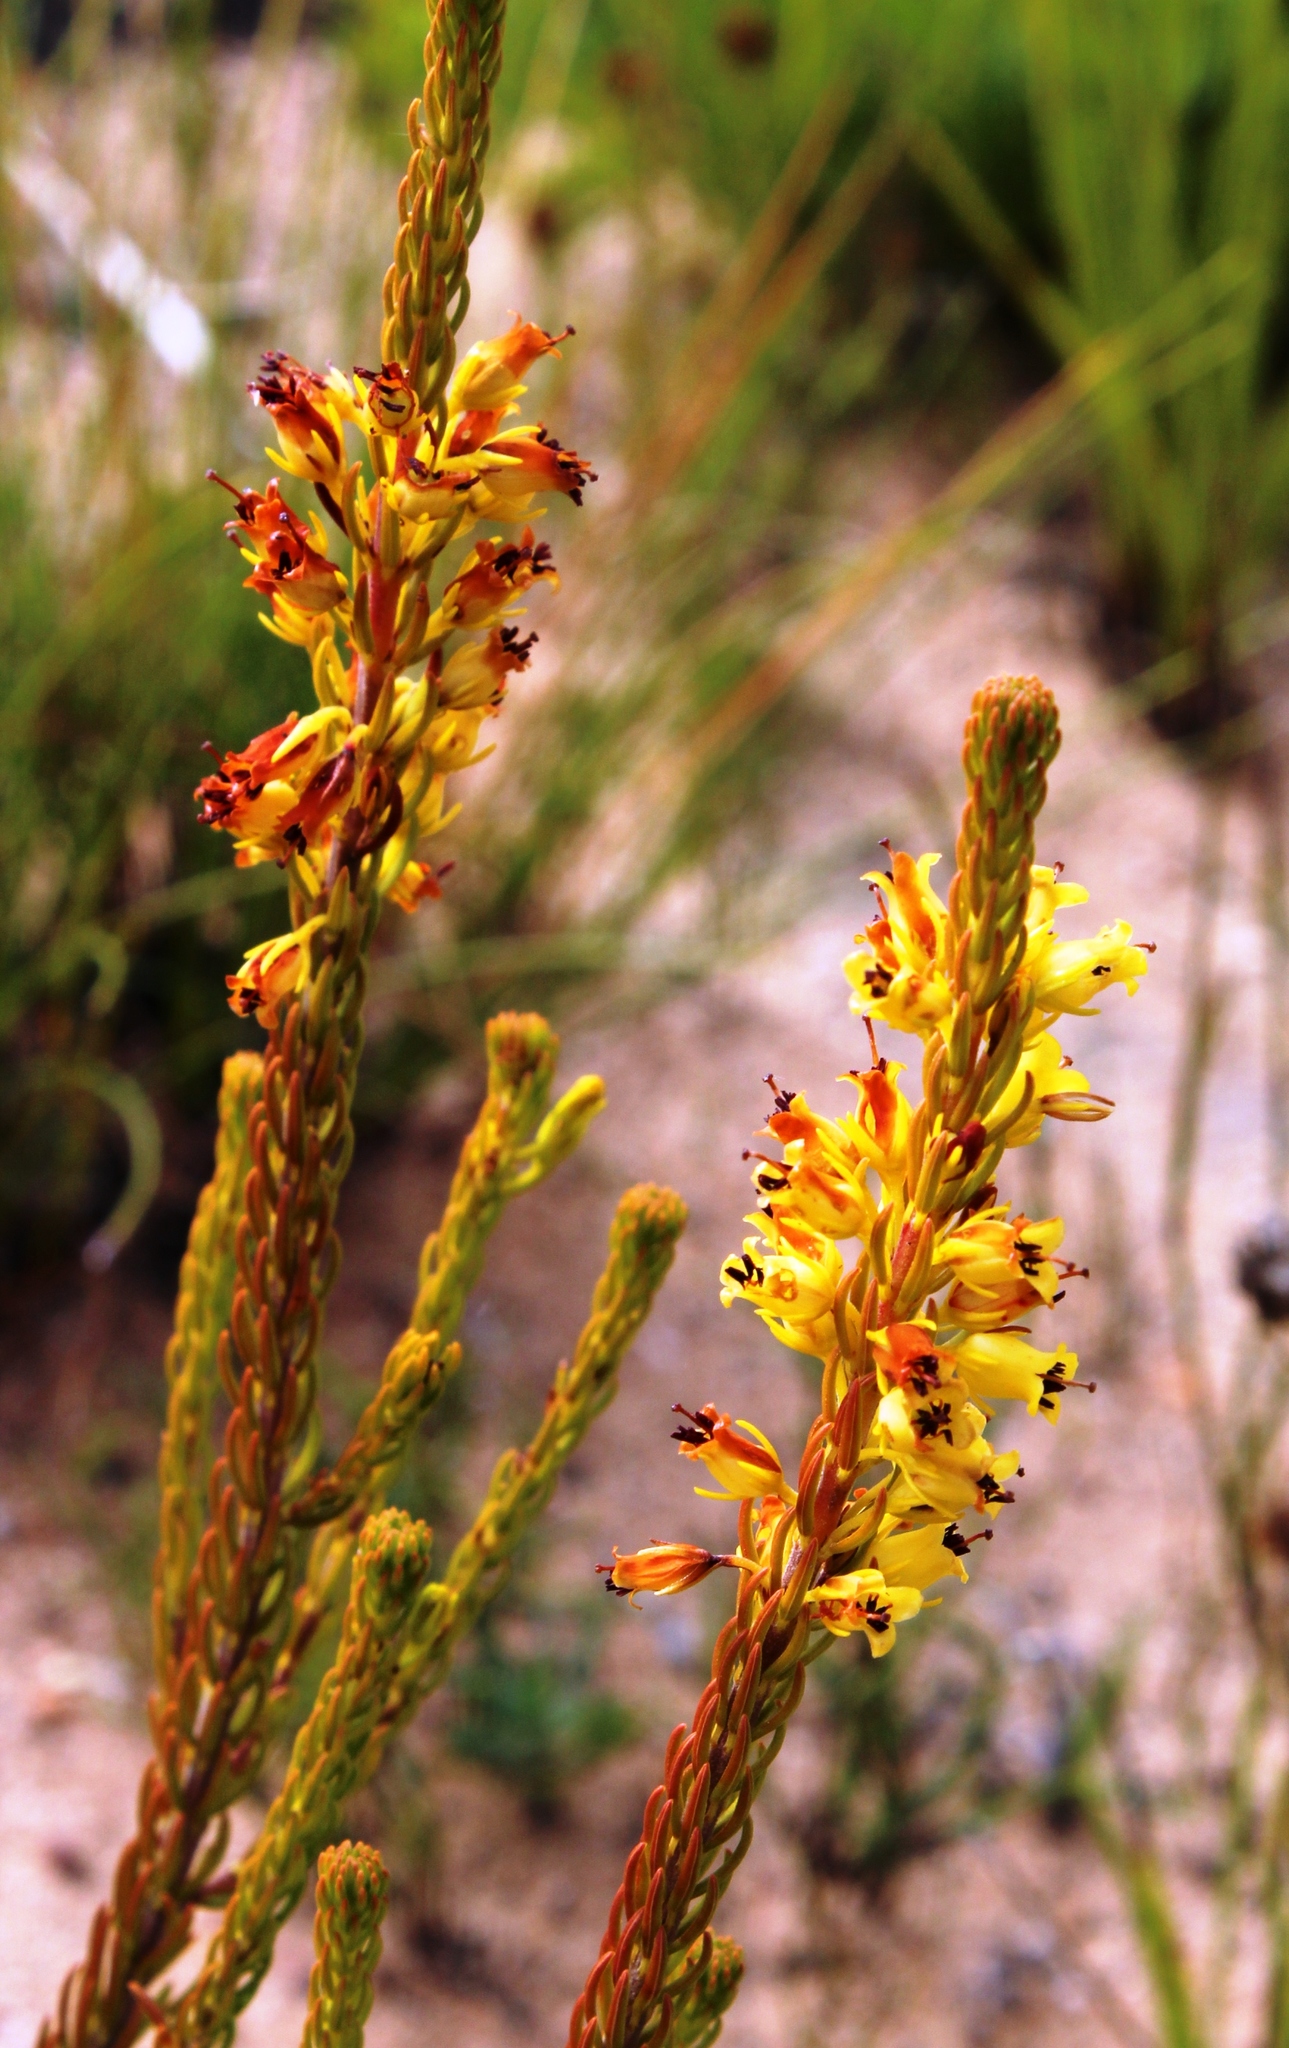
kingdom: Plantae
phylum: Tracheophyta
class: Magnoliopsida
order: Ericales
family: Ericaceae
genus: Erica
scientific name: Erica parilis
